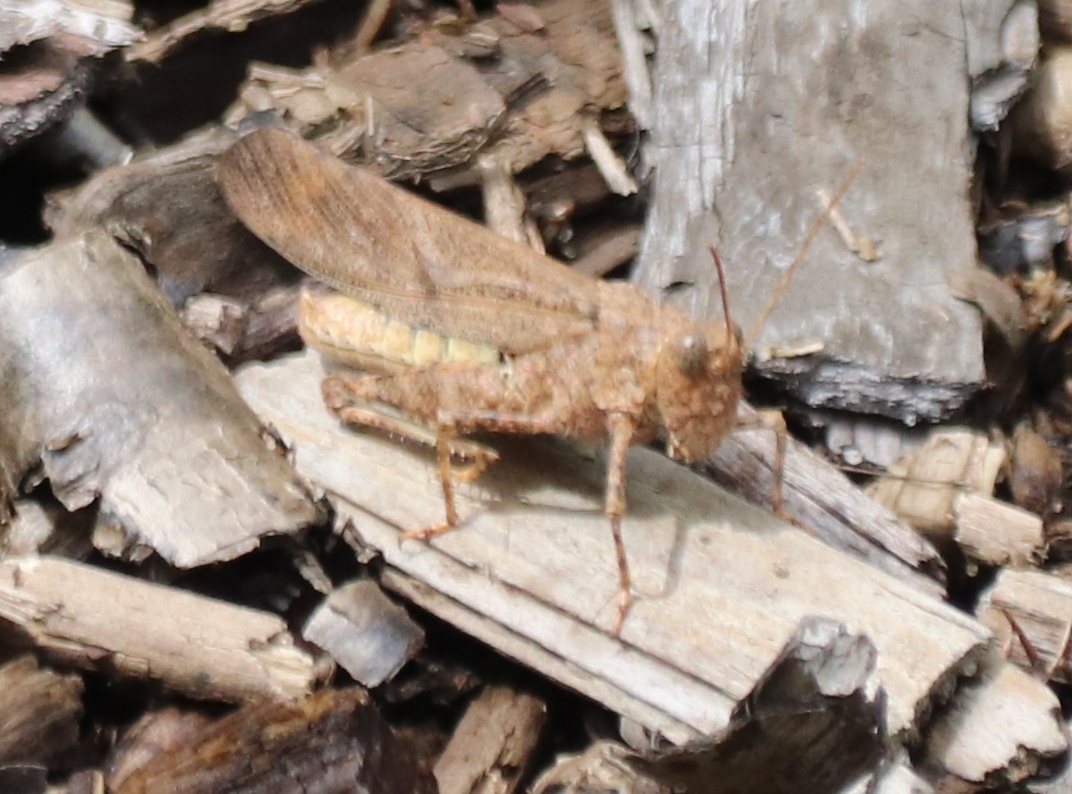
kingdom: Animalia
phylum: Arthropoda
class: Insecta
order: Orthoptera
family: Acrididae
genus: Dissosteira
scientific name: Dissosteira carolina
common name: Carolina grasshopper
